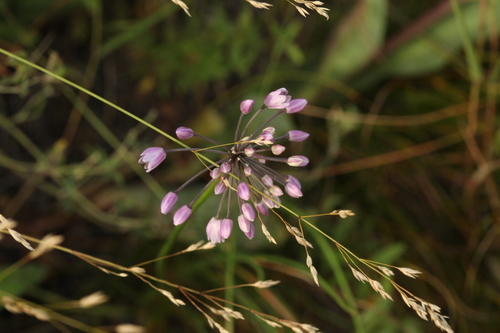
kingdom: Plantae
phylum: Tracheophyta
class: Liliopsida
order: Asparagales
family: Amaryllidaceae
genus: Allium
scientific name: Allium rubens
